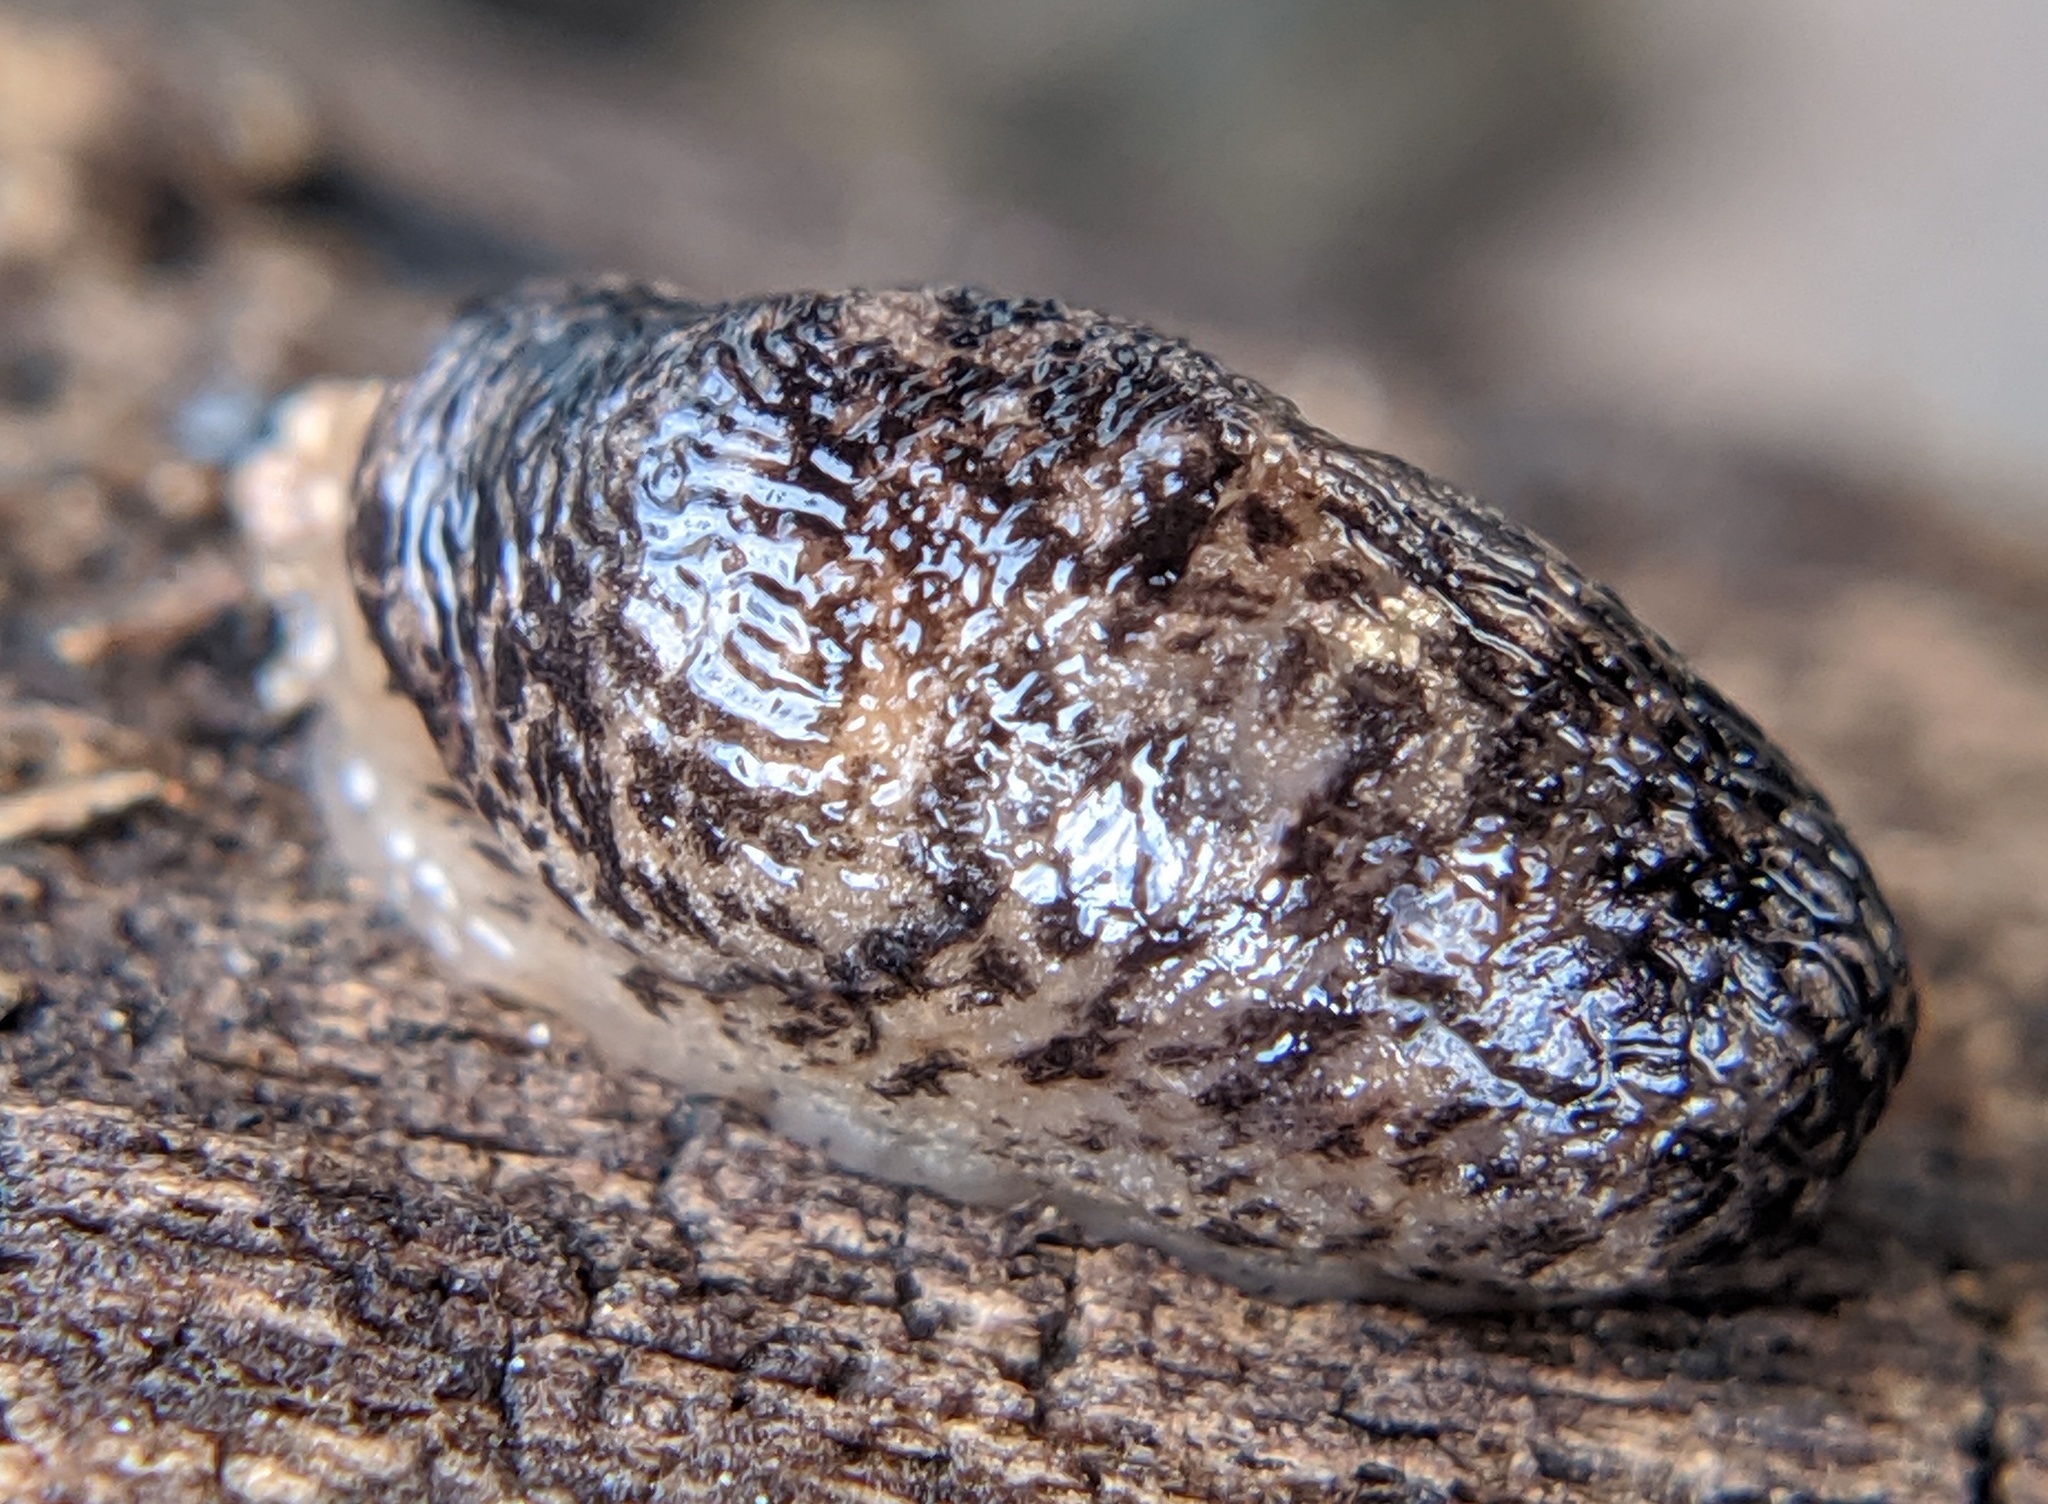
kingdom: Animalia
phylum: Mollusca
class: Gastropoda
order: Stylommatophora
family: Agriolimacidae
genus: Deroceras
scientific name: Deroceras reticulatum
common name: Gray field slug
